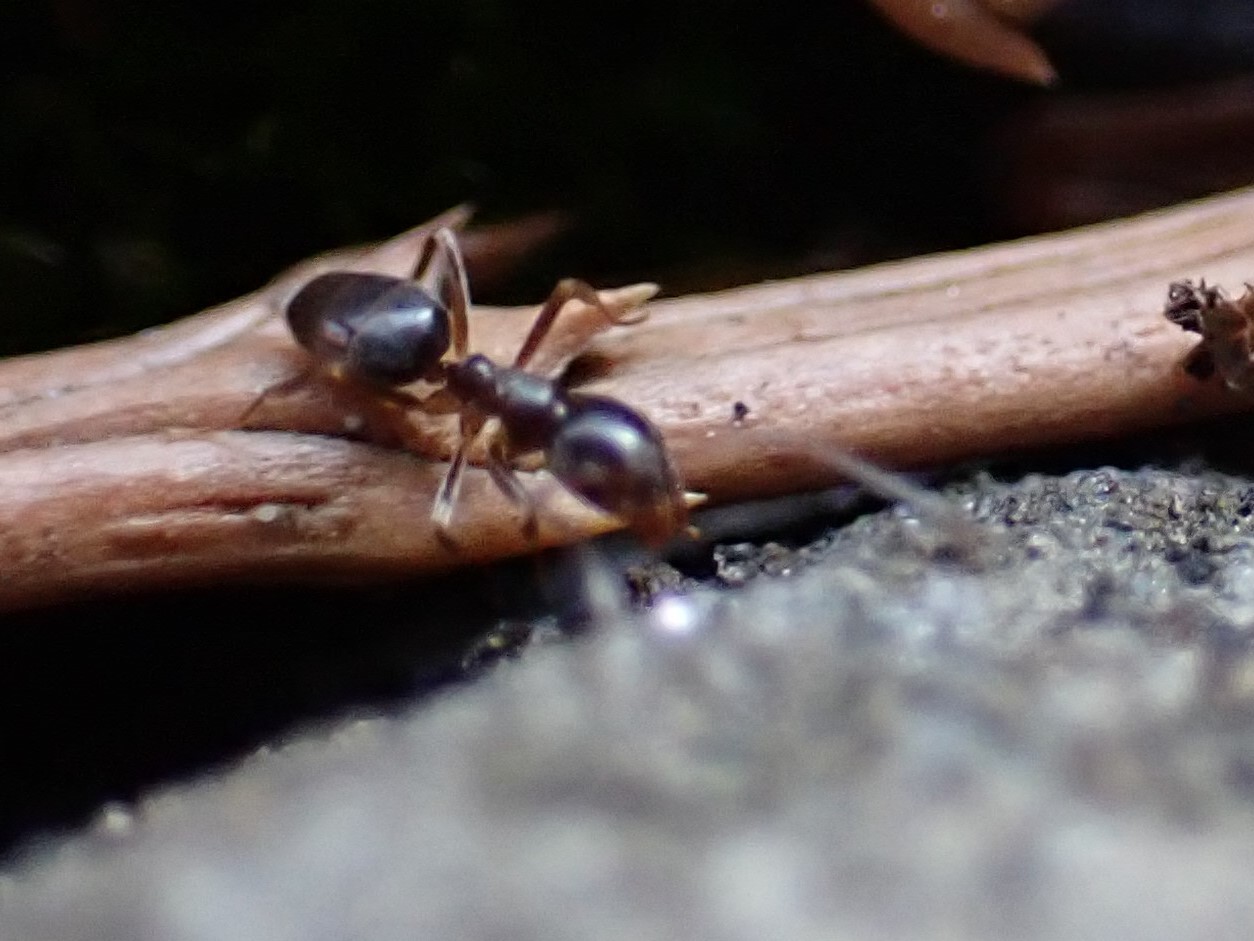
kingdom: Animalia
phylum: Arthropoda
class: Insecta
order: Hymenoptera
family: Formicidae
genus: Tapinoma
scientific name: Tapinoma sessile
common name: Odorous house ant
